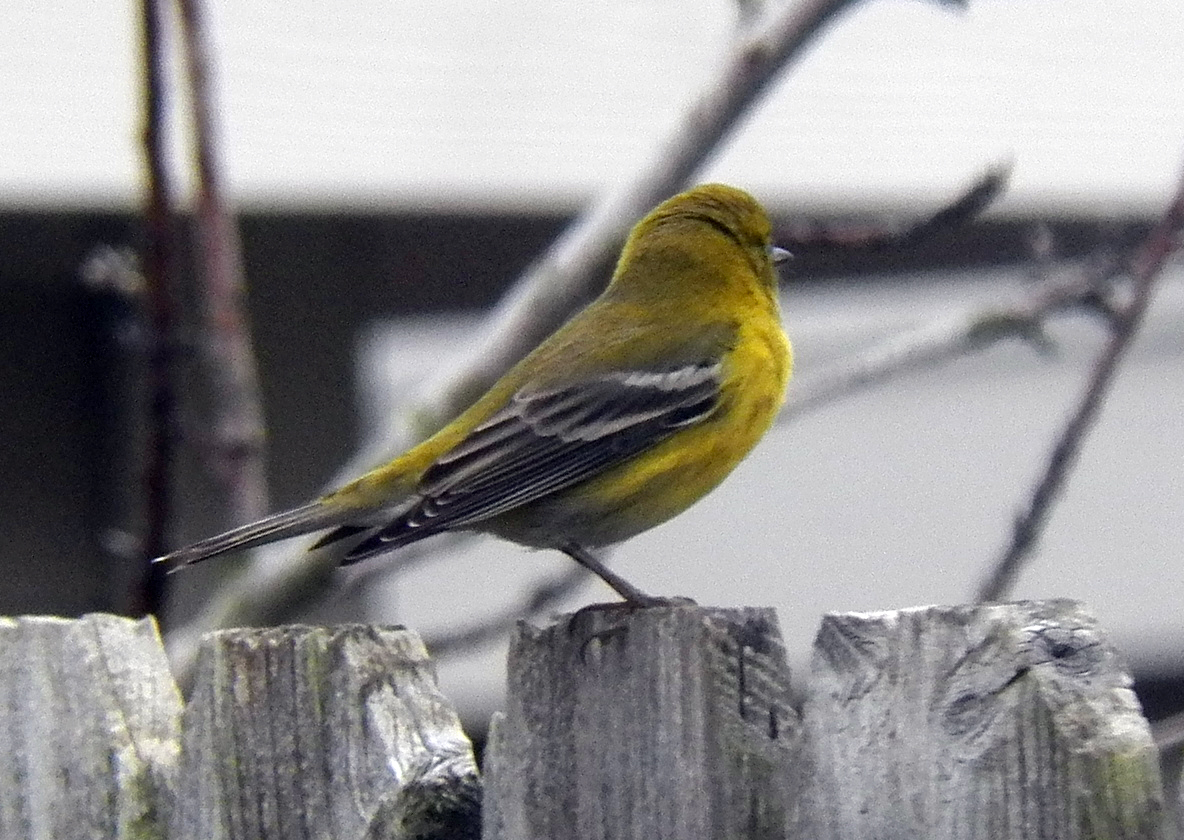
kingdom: Animalia
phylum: Chordata
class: Aves
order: Passeriformes
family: Parulidae
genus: Setophaga
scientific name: Setophaga pinus
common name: Pine warbler
